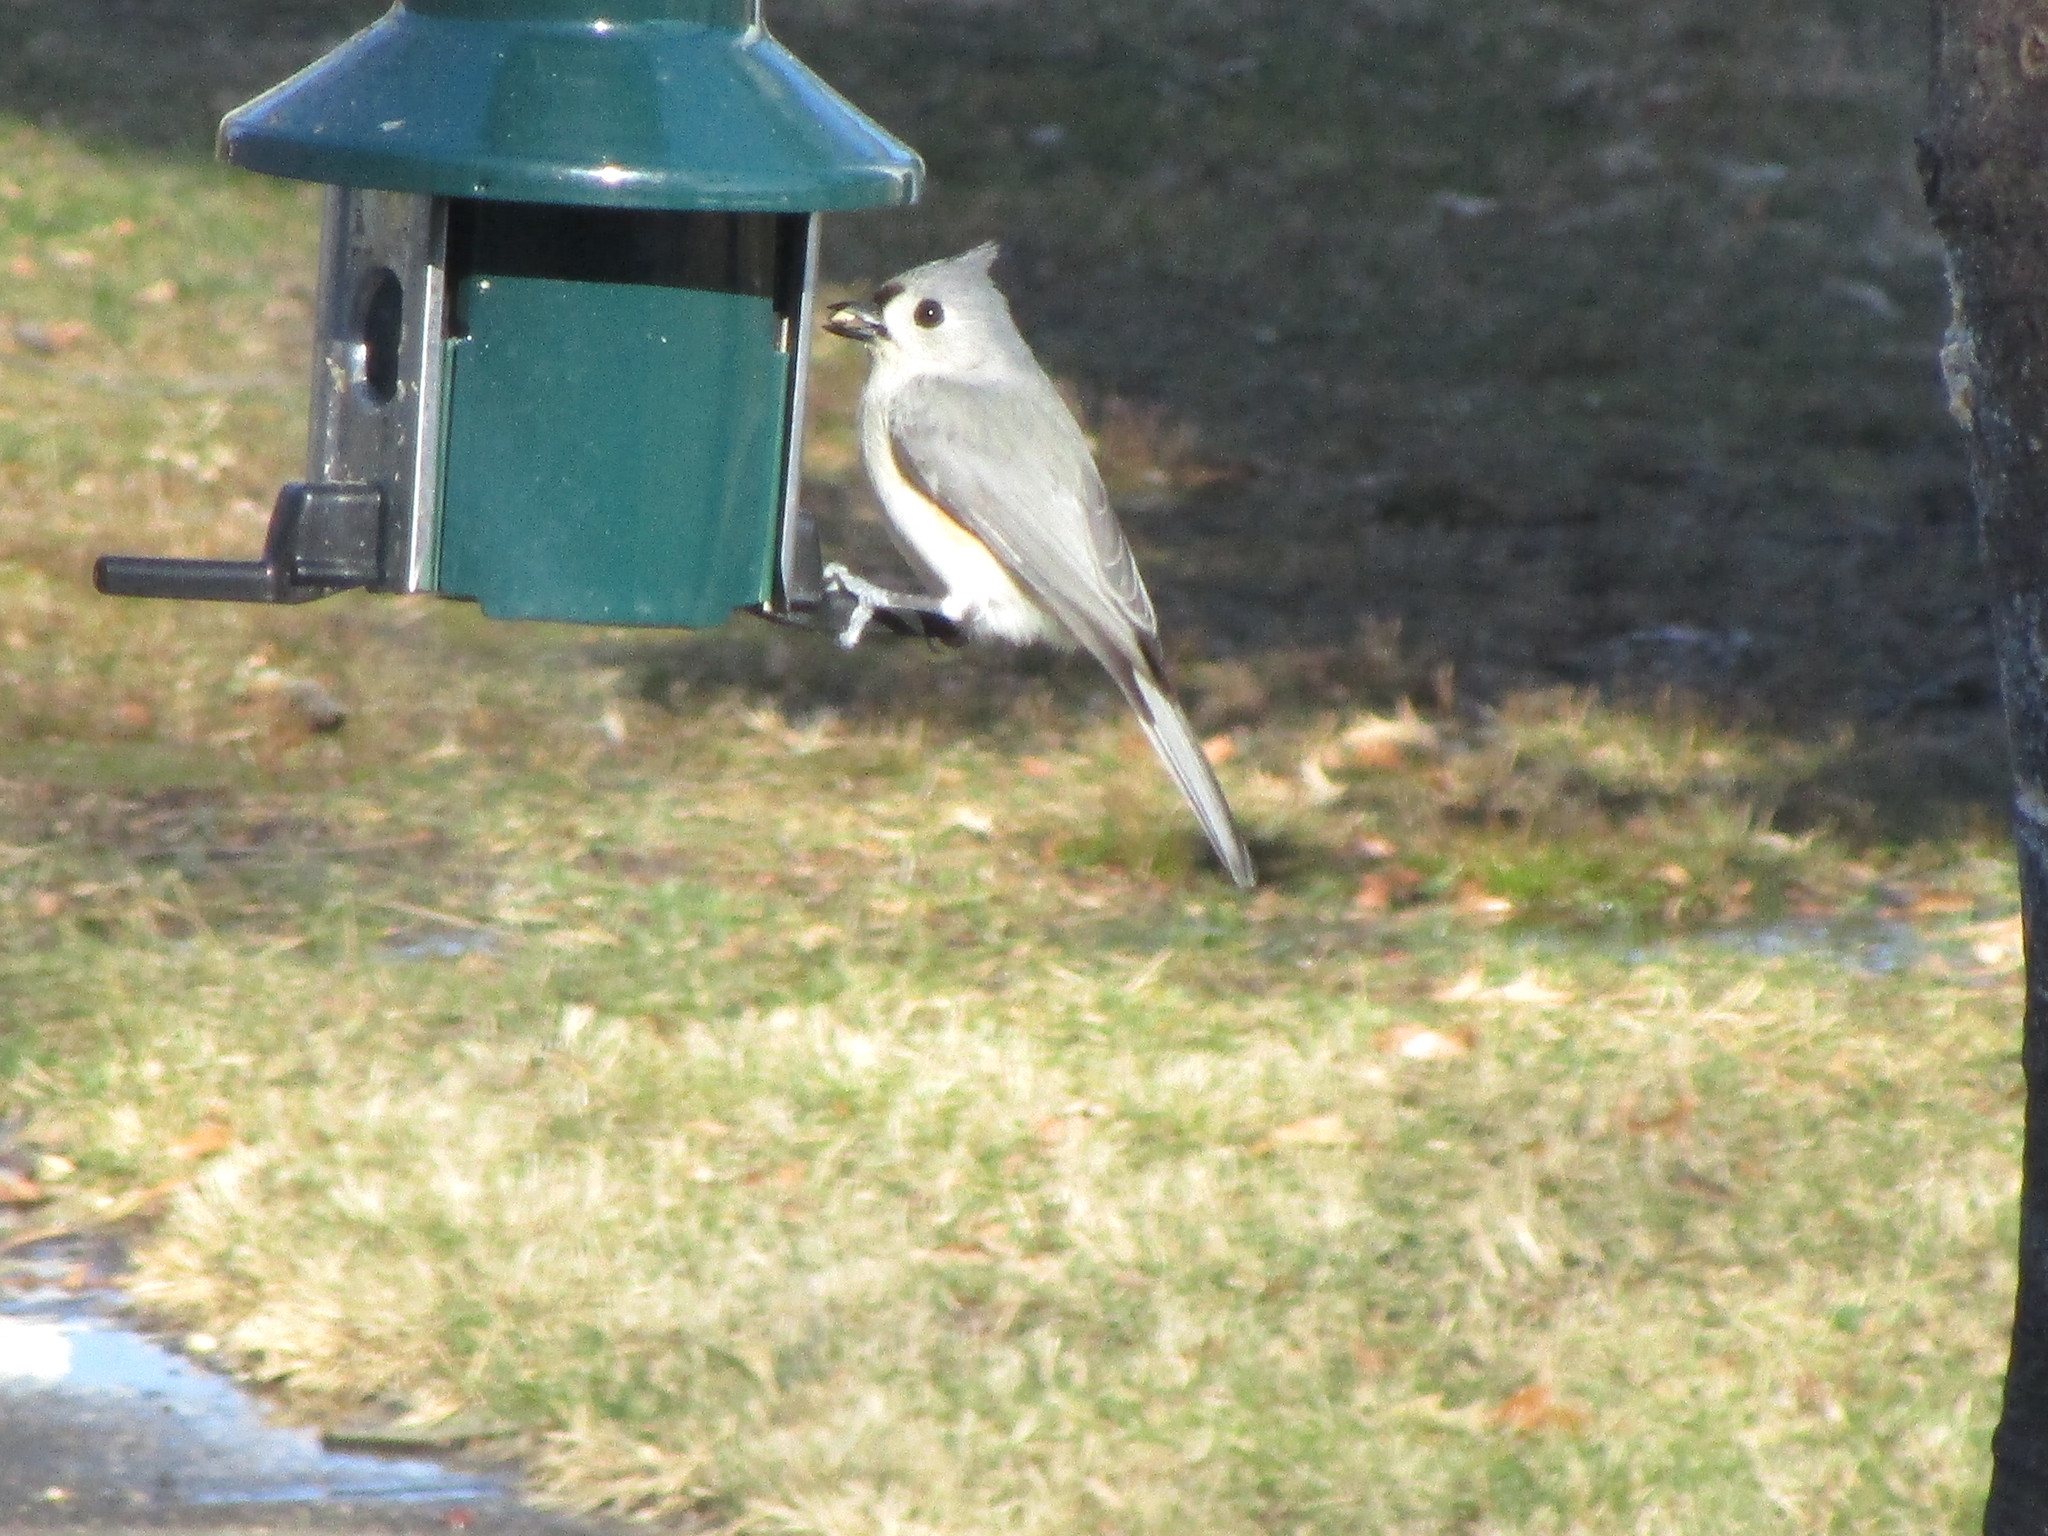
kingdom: Animalia
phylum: Chordata
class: Aves
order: Passeriformes
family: Paridae
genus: Baeolophus
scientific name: Baeolophus bicolor
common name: Tufted titmouse
